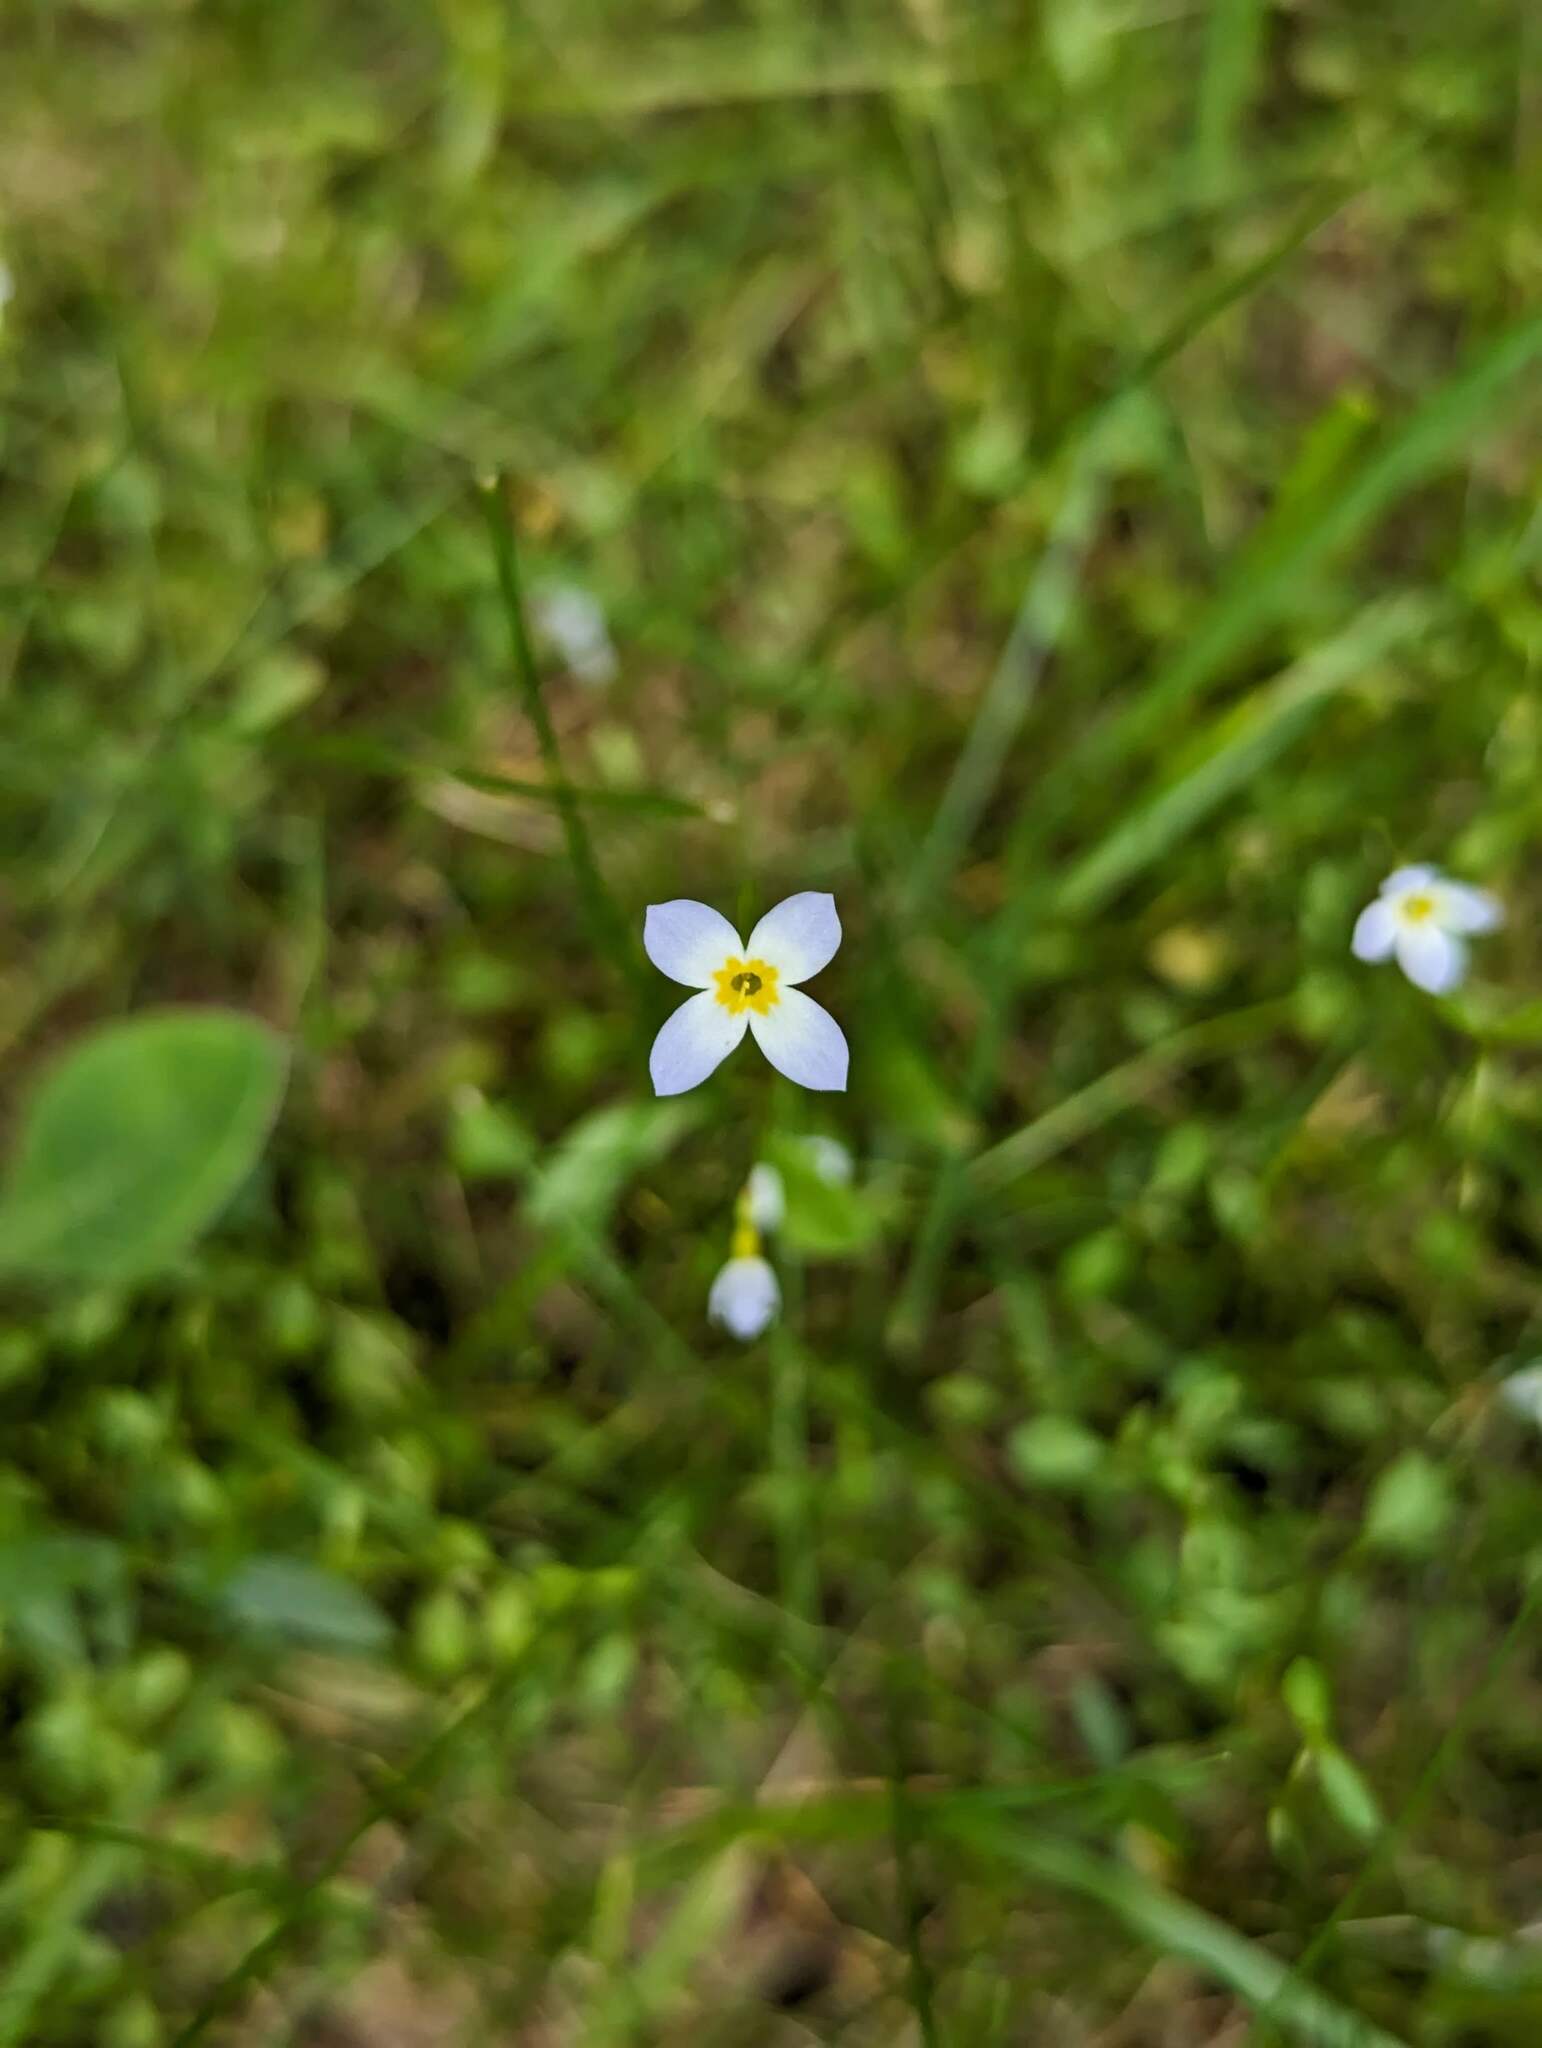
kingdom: Plantae
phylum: Tracheophyta
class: Magnoliopsida
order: Gentianales
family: Rubiaceae
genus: Houstonia
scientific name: Houstonia caerulea
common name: Bluets
